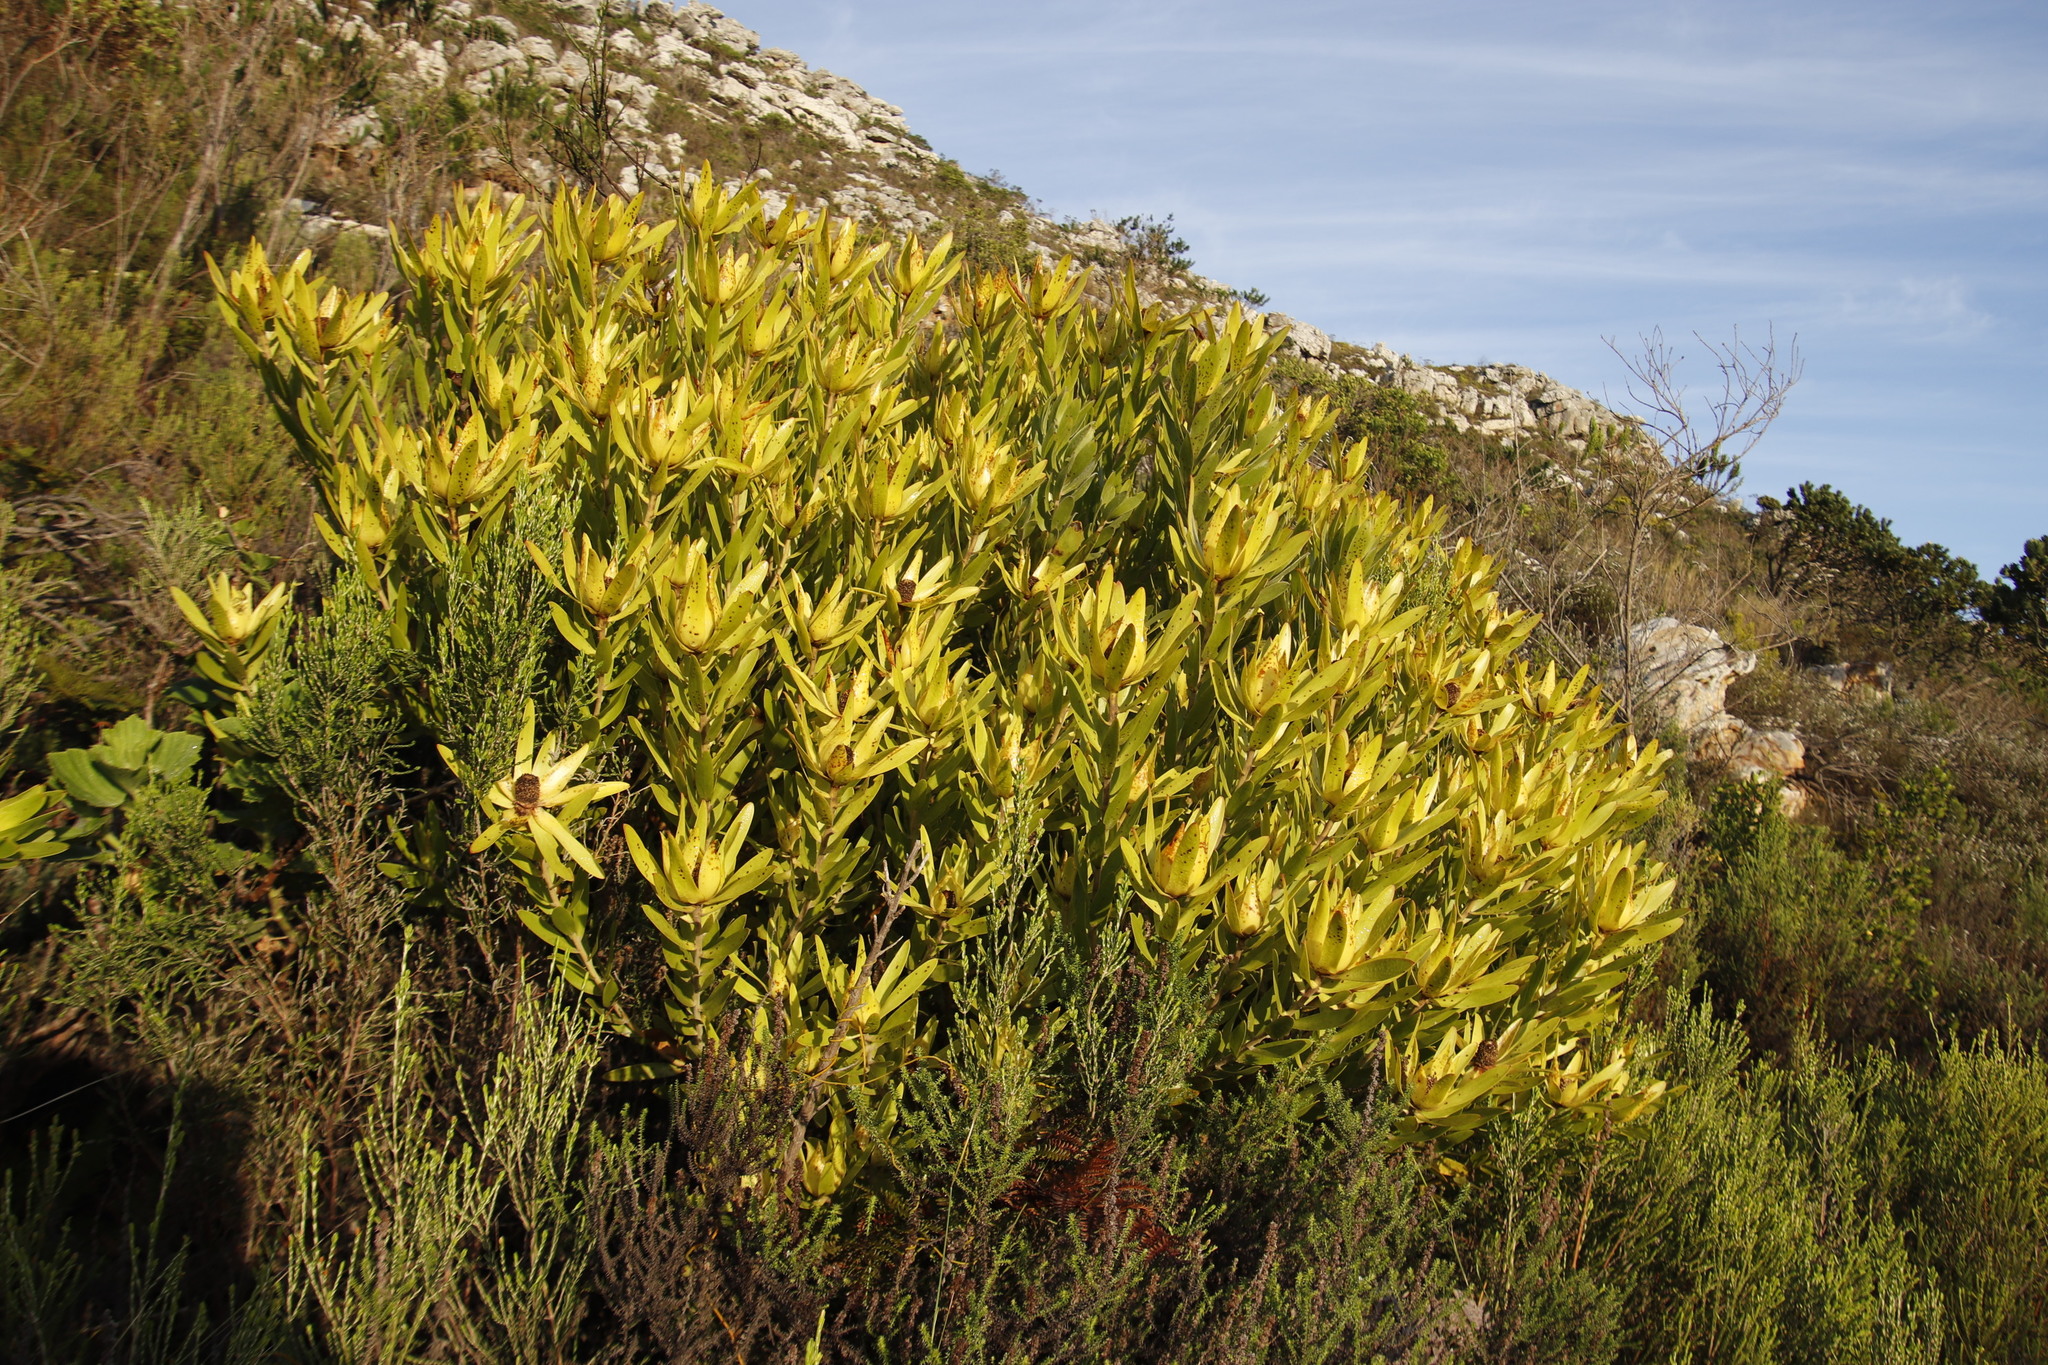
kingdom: Plantae
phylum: Tracheophyta
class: Magnoliopsida
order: Proteales
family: Proteaceae
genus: Leucadendron
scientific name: Leucadendron laureolum
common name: Golden sunshinebush
